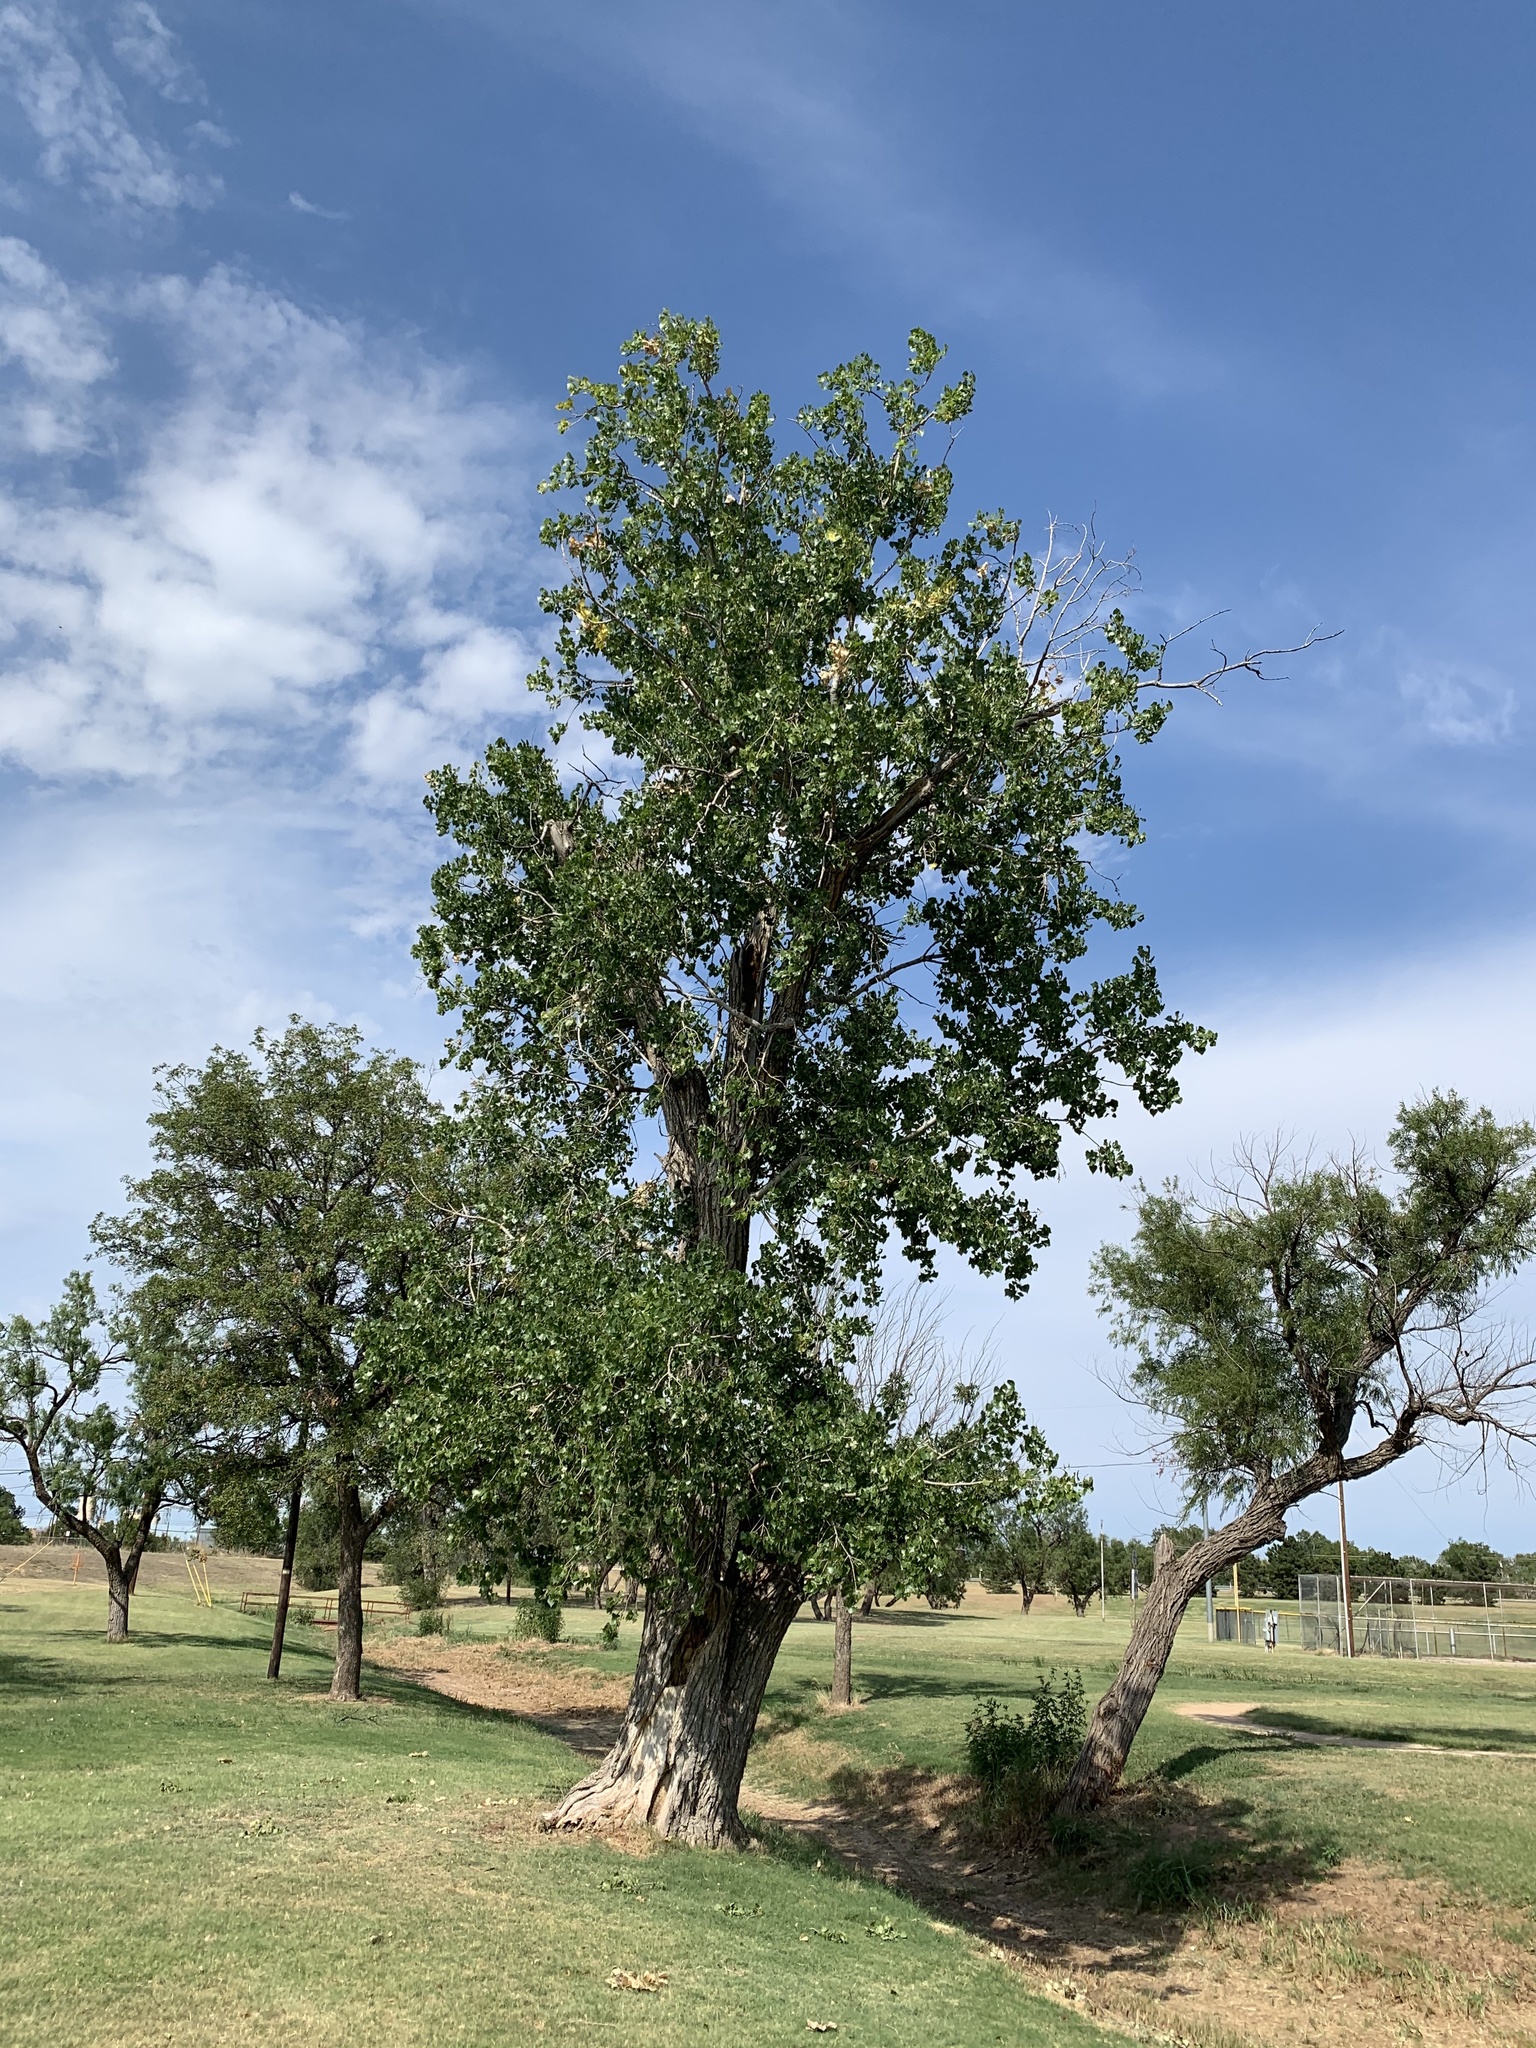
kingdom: Plantae
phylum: Tracheophyta
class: Magnoliopsida
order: Malpighiales
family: Salicaceae
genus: Populus
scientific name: Populus deltoides
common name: Eastern cottonwood
